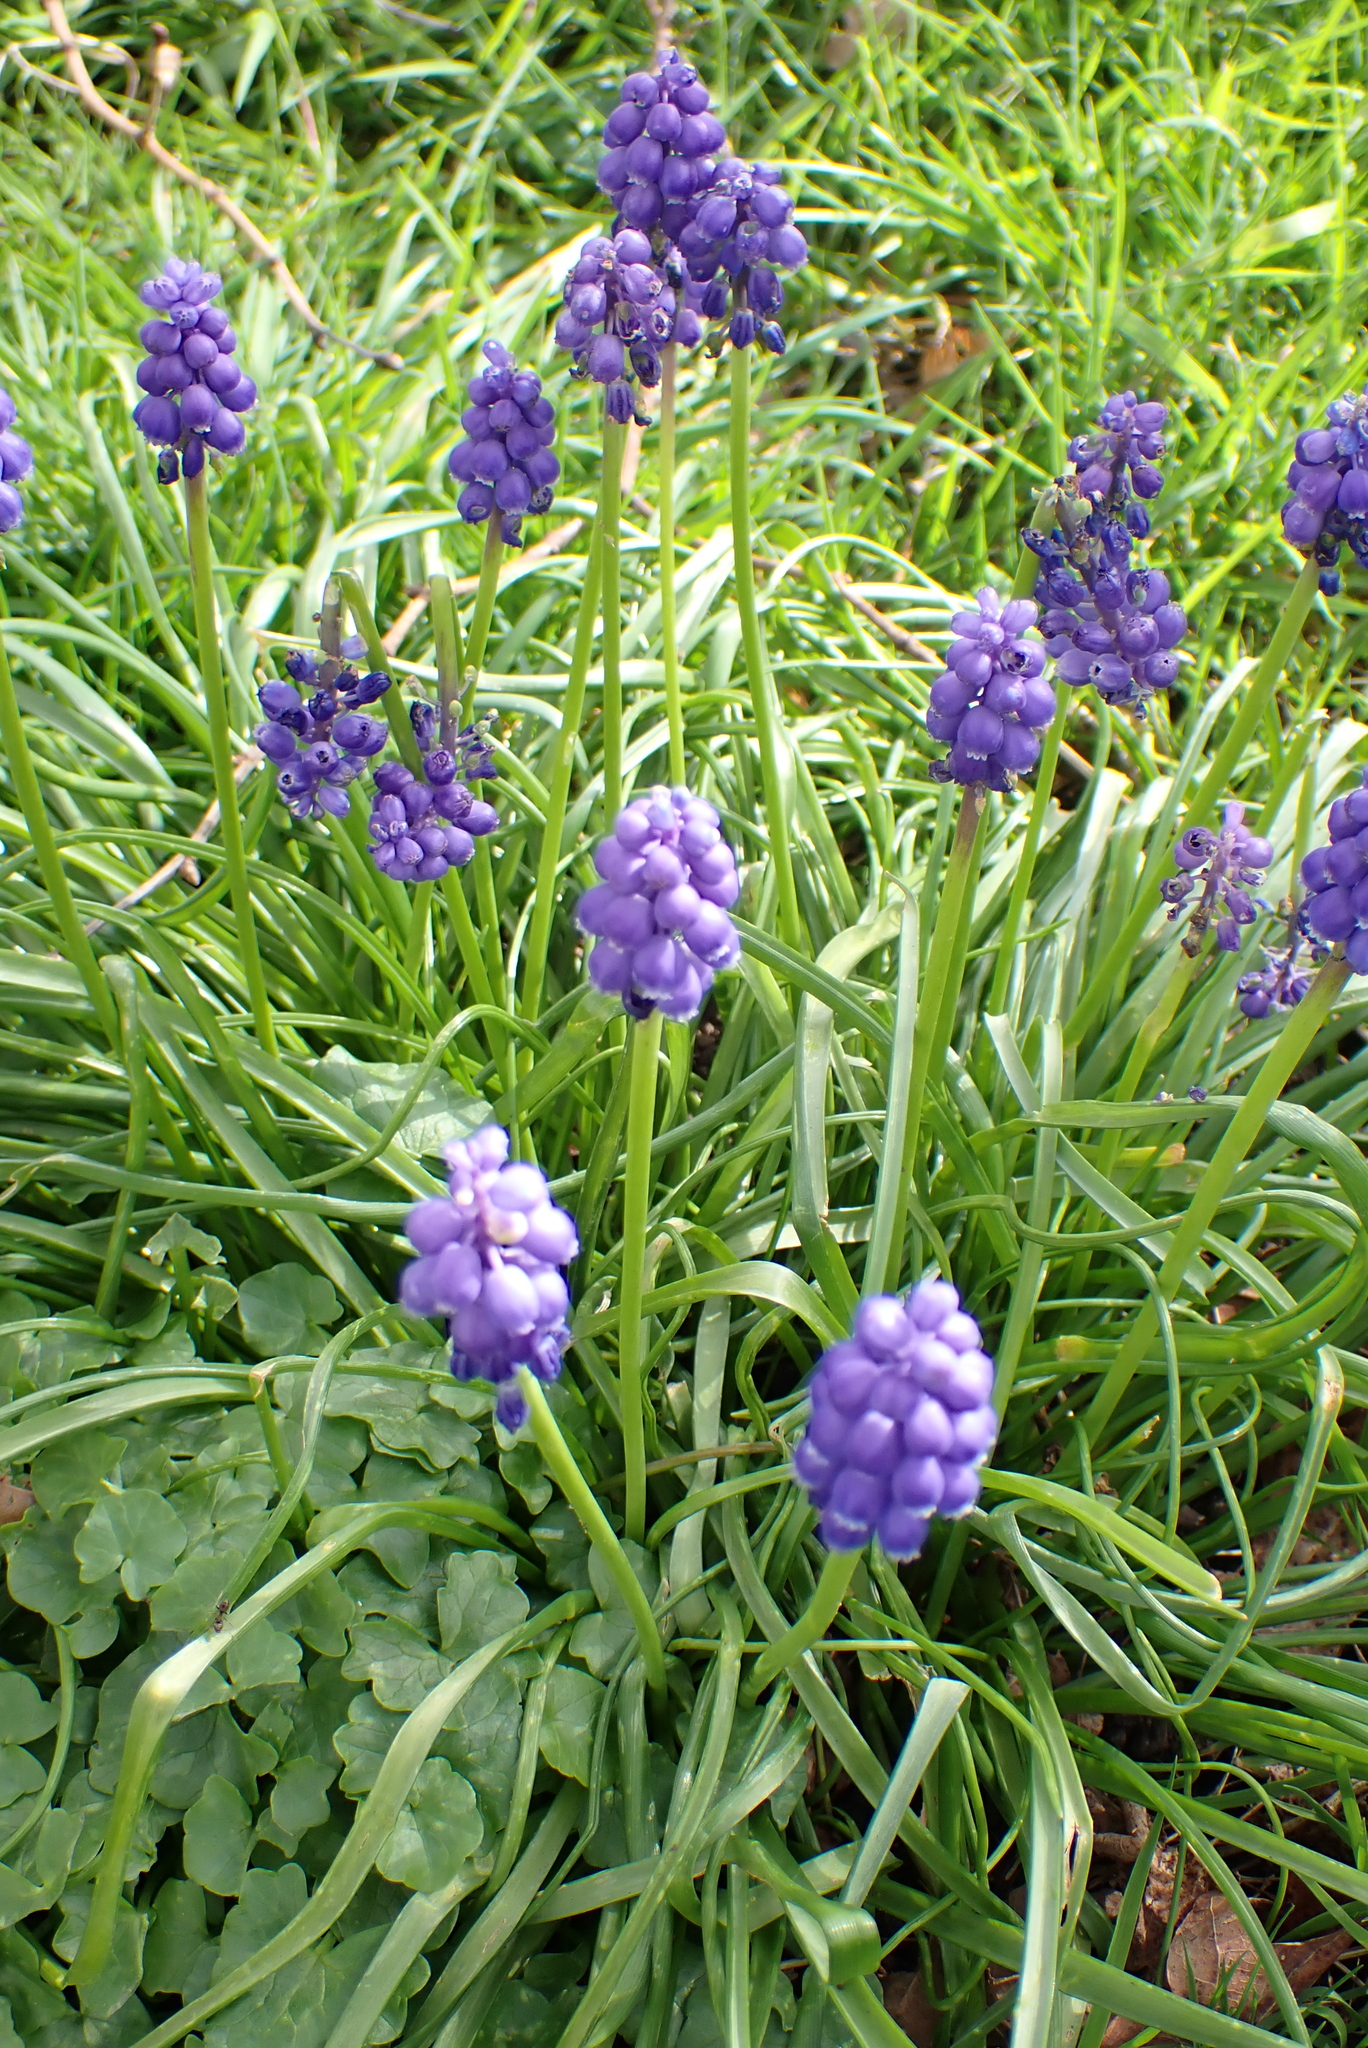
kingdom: Plantae
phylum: Tracheophyta
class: Liliopsida
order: Asparagales
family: Asparagaceae
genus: Muscari
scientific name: Muscari armeniacum
